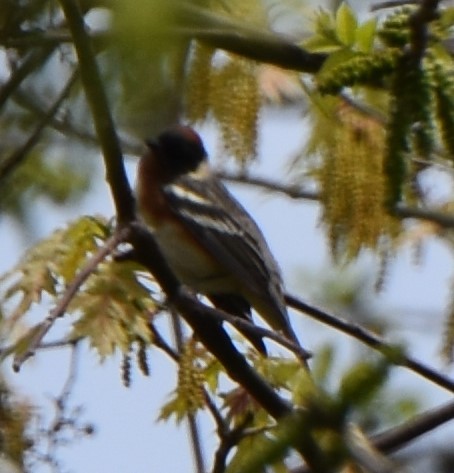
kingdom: Animalia
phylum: Chordata
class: Aves
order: Passeriformes
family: Parulidae
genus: Setophaga
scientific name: Setophaga castanea
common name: Bay-breasted warbler
